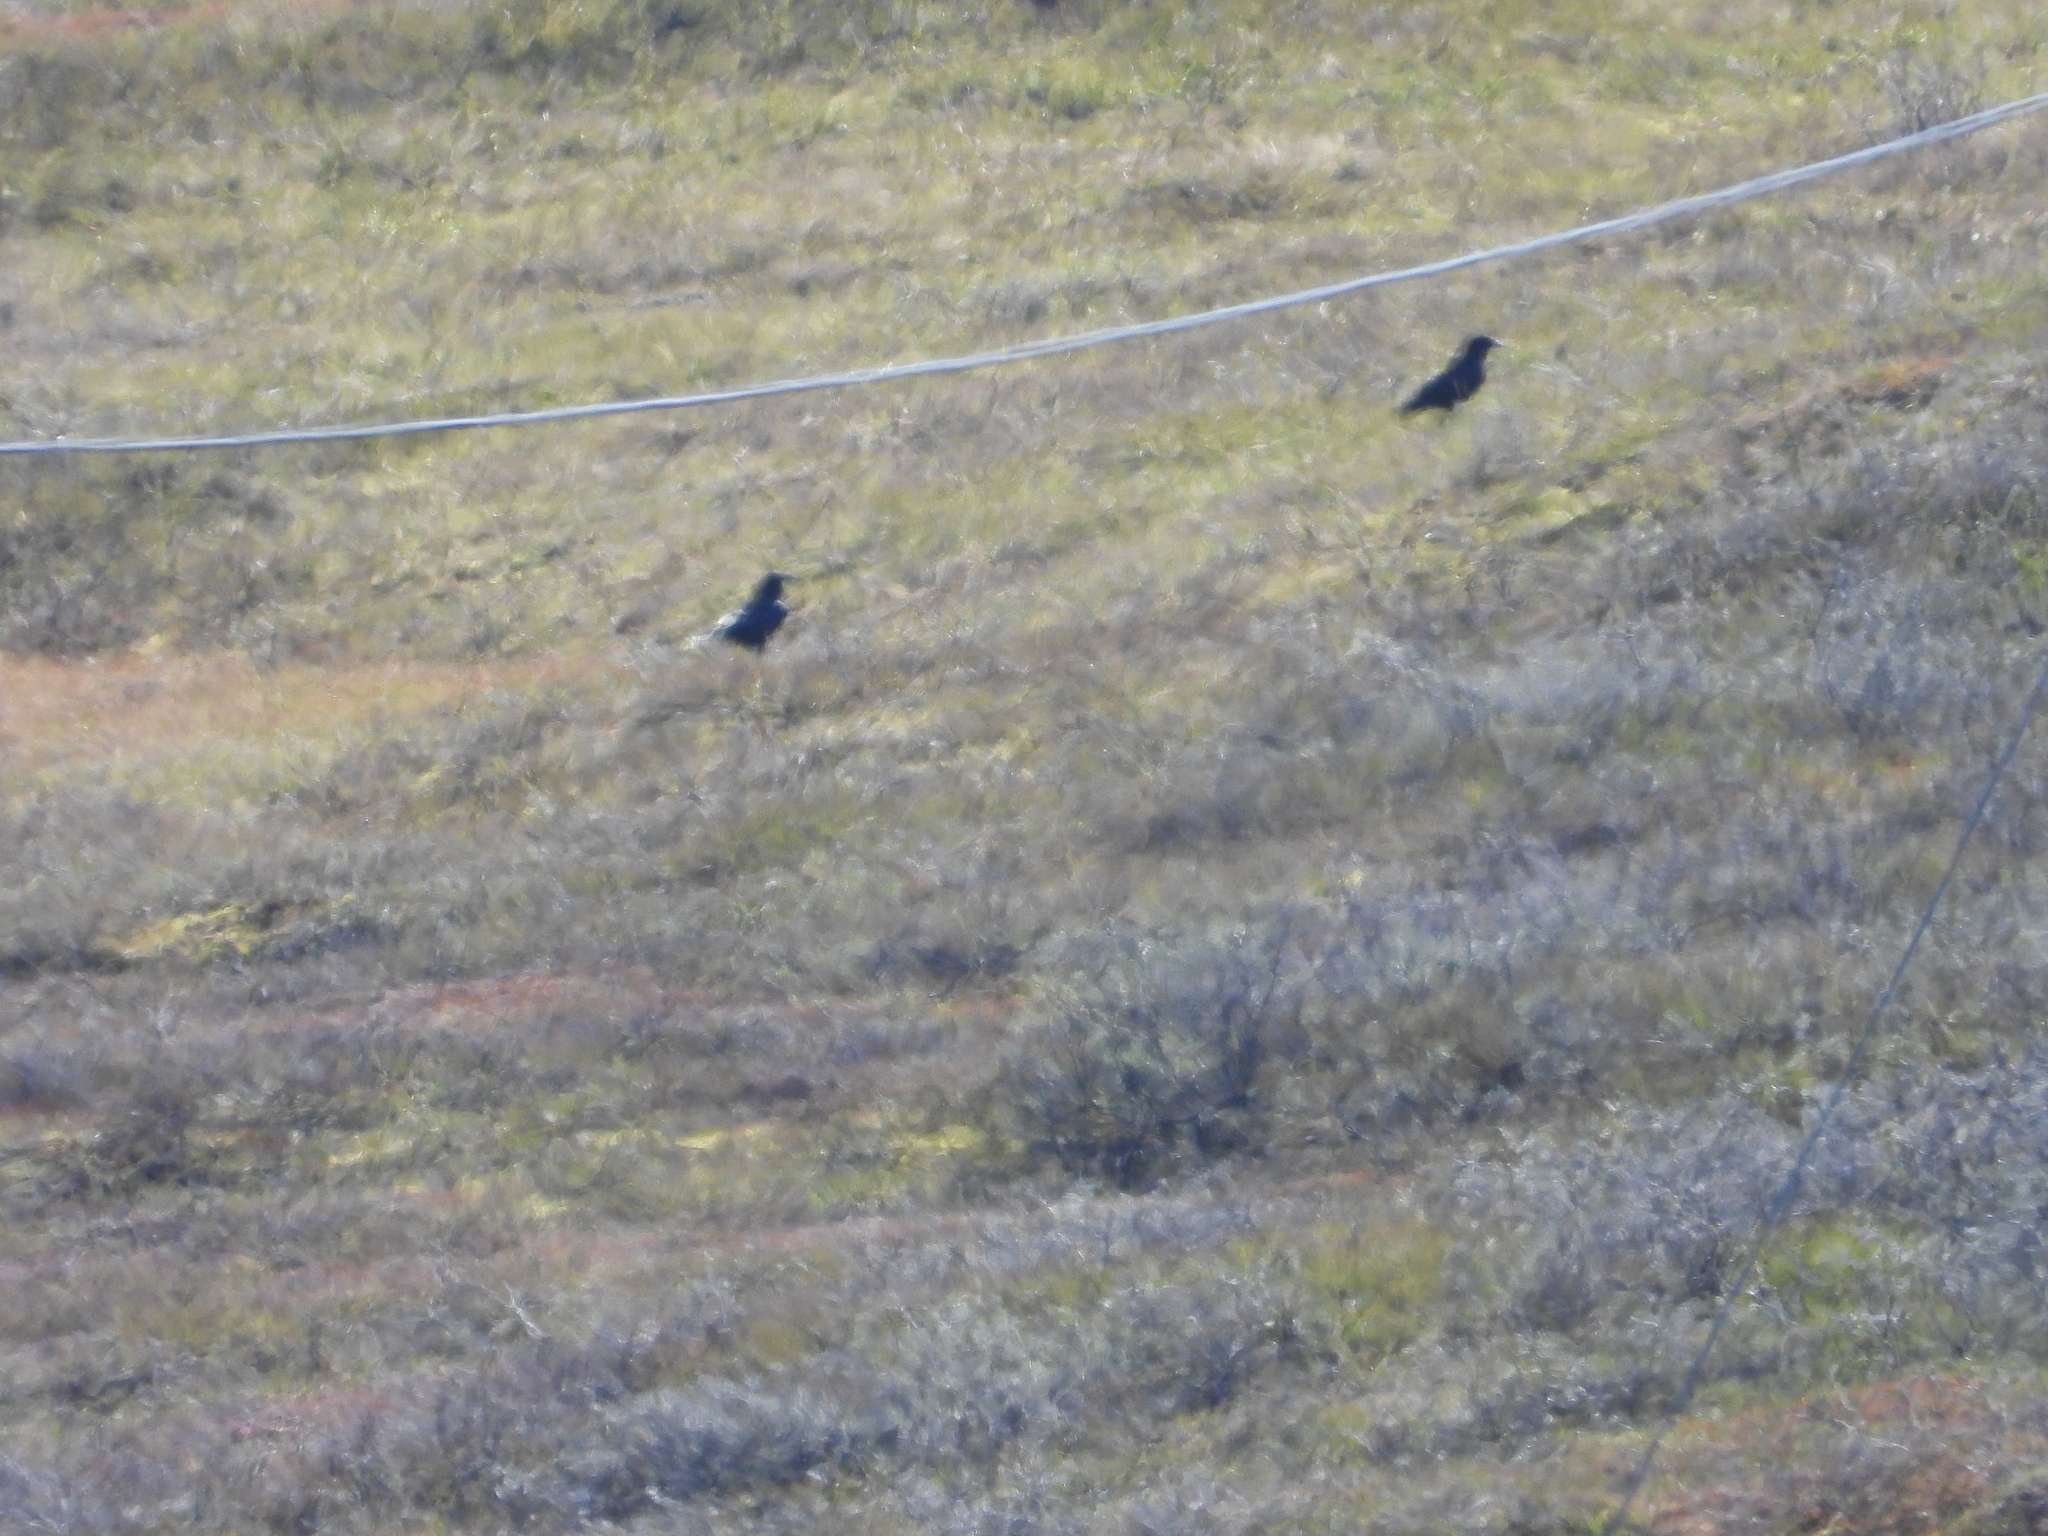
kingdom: Animalia
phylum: Chordata
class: Aves
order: Passeriformes
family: Corvidae
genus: Corvus
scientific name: Corvus corax
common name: Common raven
